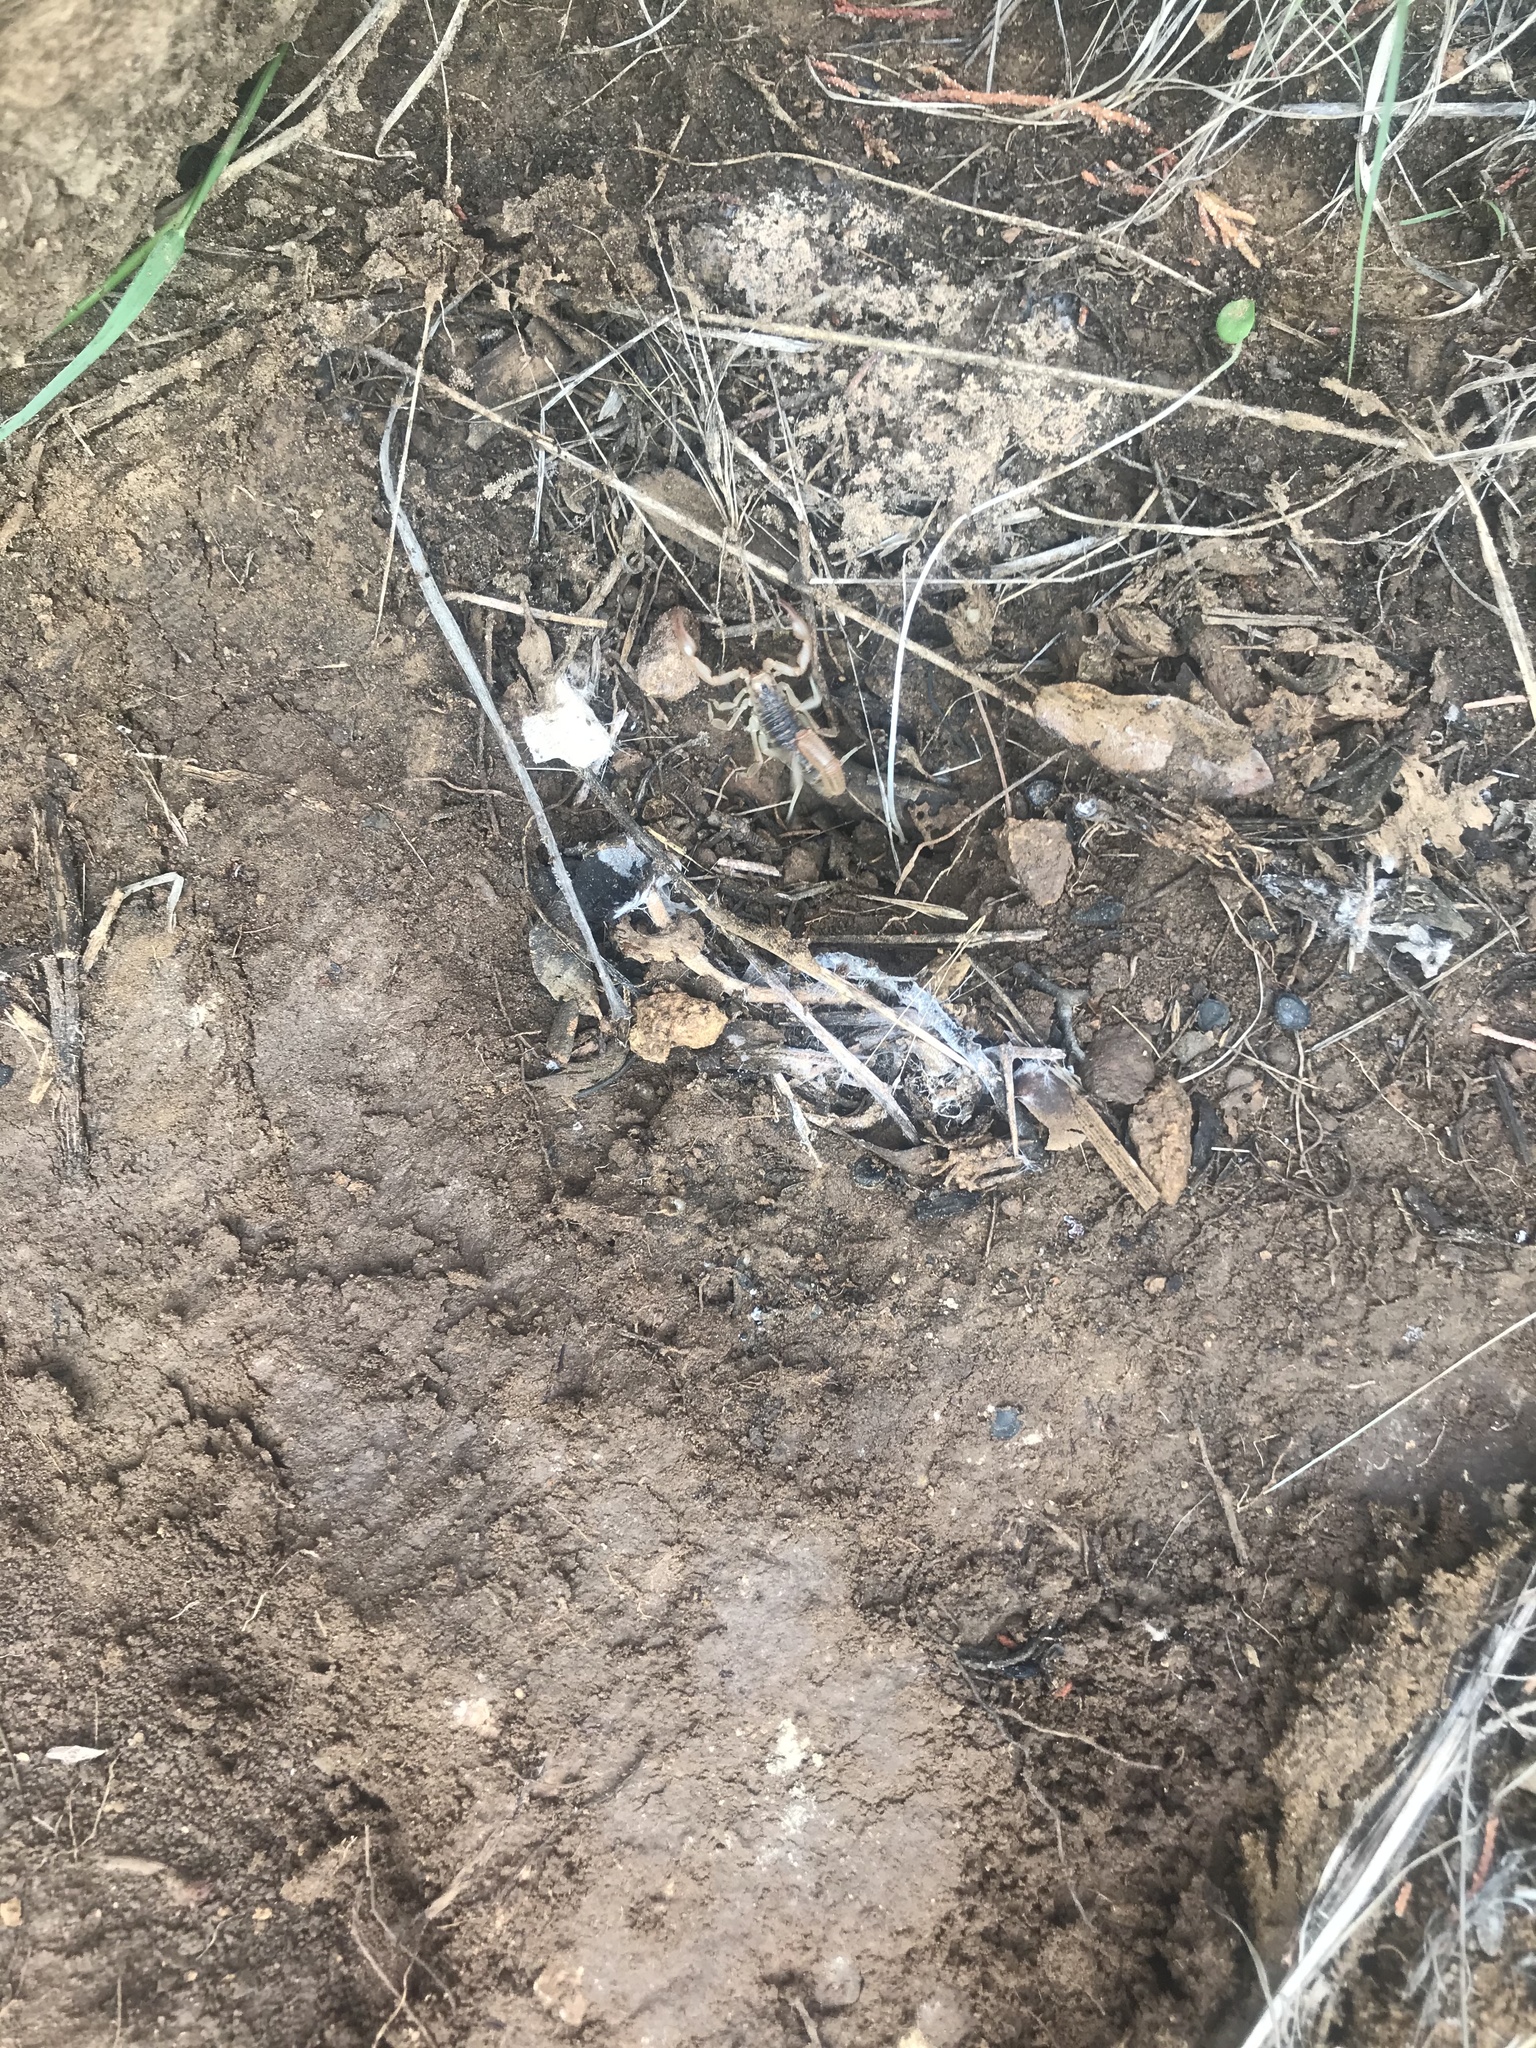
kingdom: Animalia
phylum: Arthropoda
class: Arachnida
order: Scorpiones
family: Vaejovidae
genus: Paravaejovis
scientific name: Paravaejovis spinigerus
